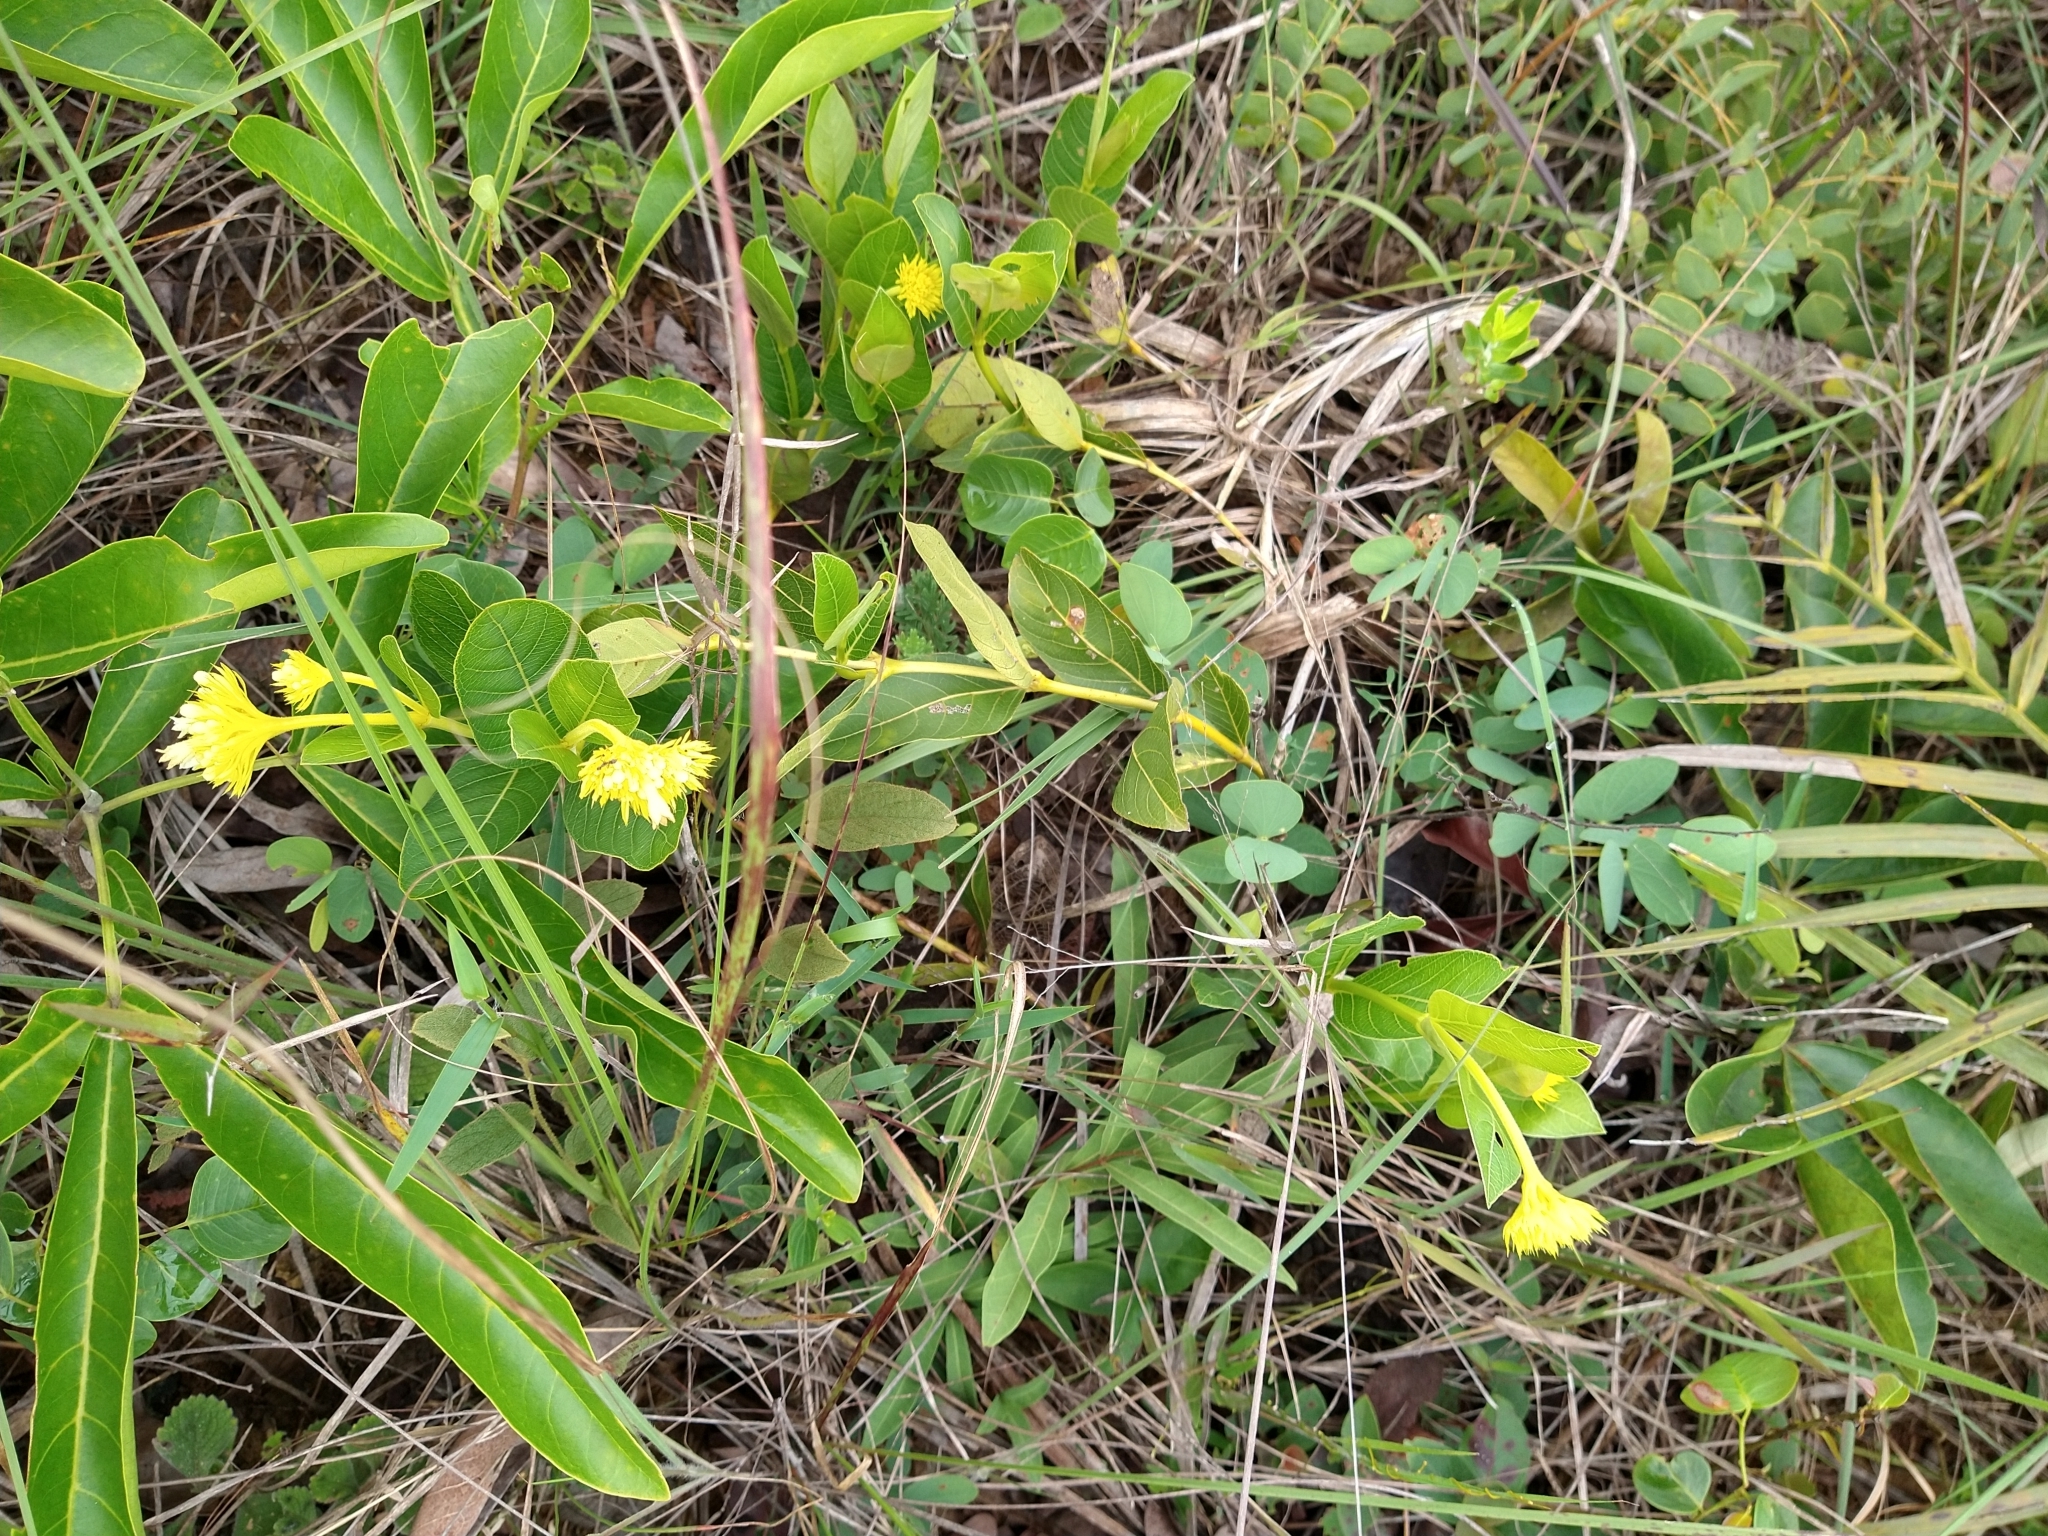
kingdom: Plantae
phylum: Tracheophyta
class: Magnoliopsida
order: Gentianales
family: Rubiaceae
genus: Palicourea
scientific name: Palicourea coriacea
